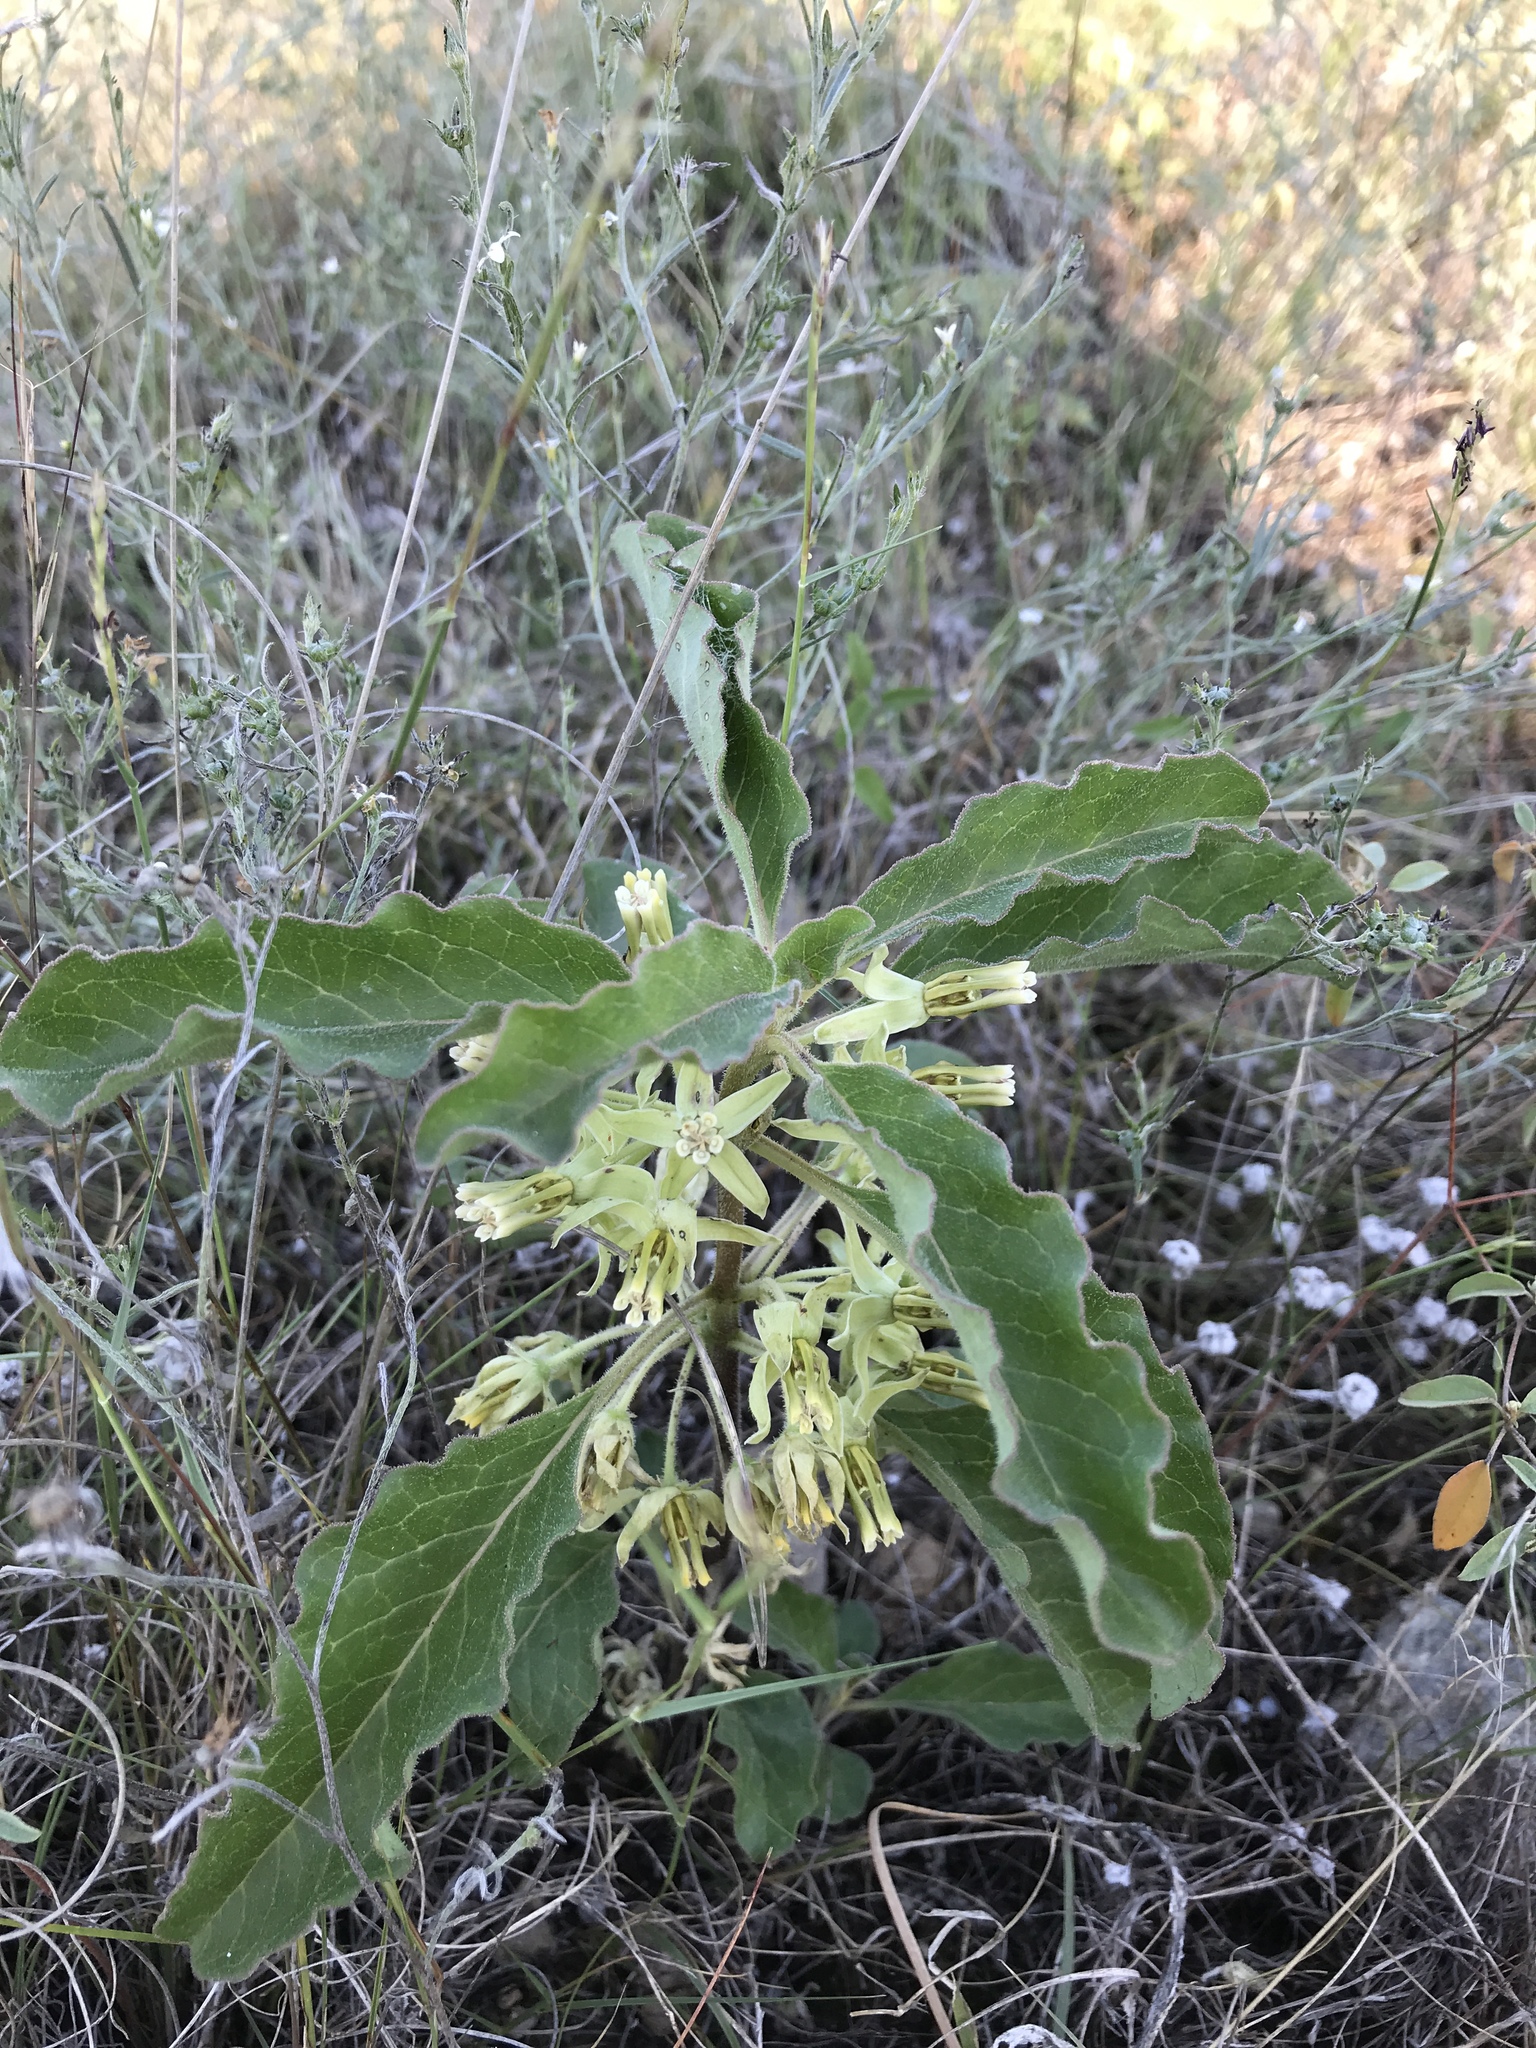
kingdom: Plantae
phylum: Tracheophyta
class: Magnoliopsida
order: Gentianales
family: Apocynaceae
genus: Asclepias
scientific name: Asclepias oenotheroides
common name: Zizotes milkweed
